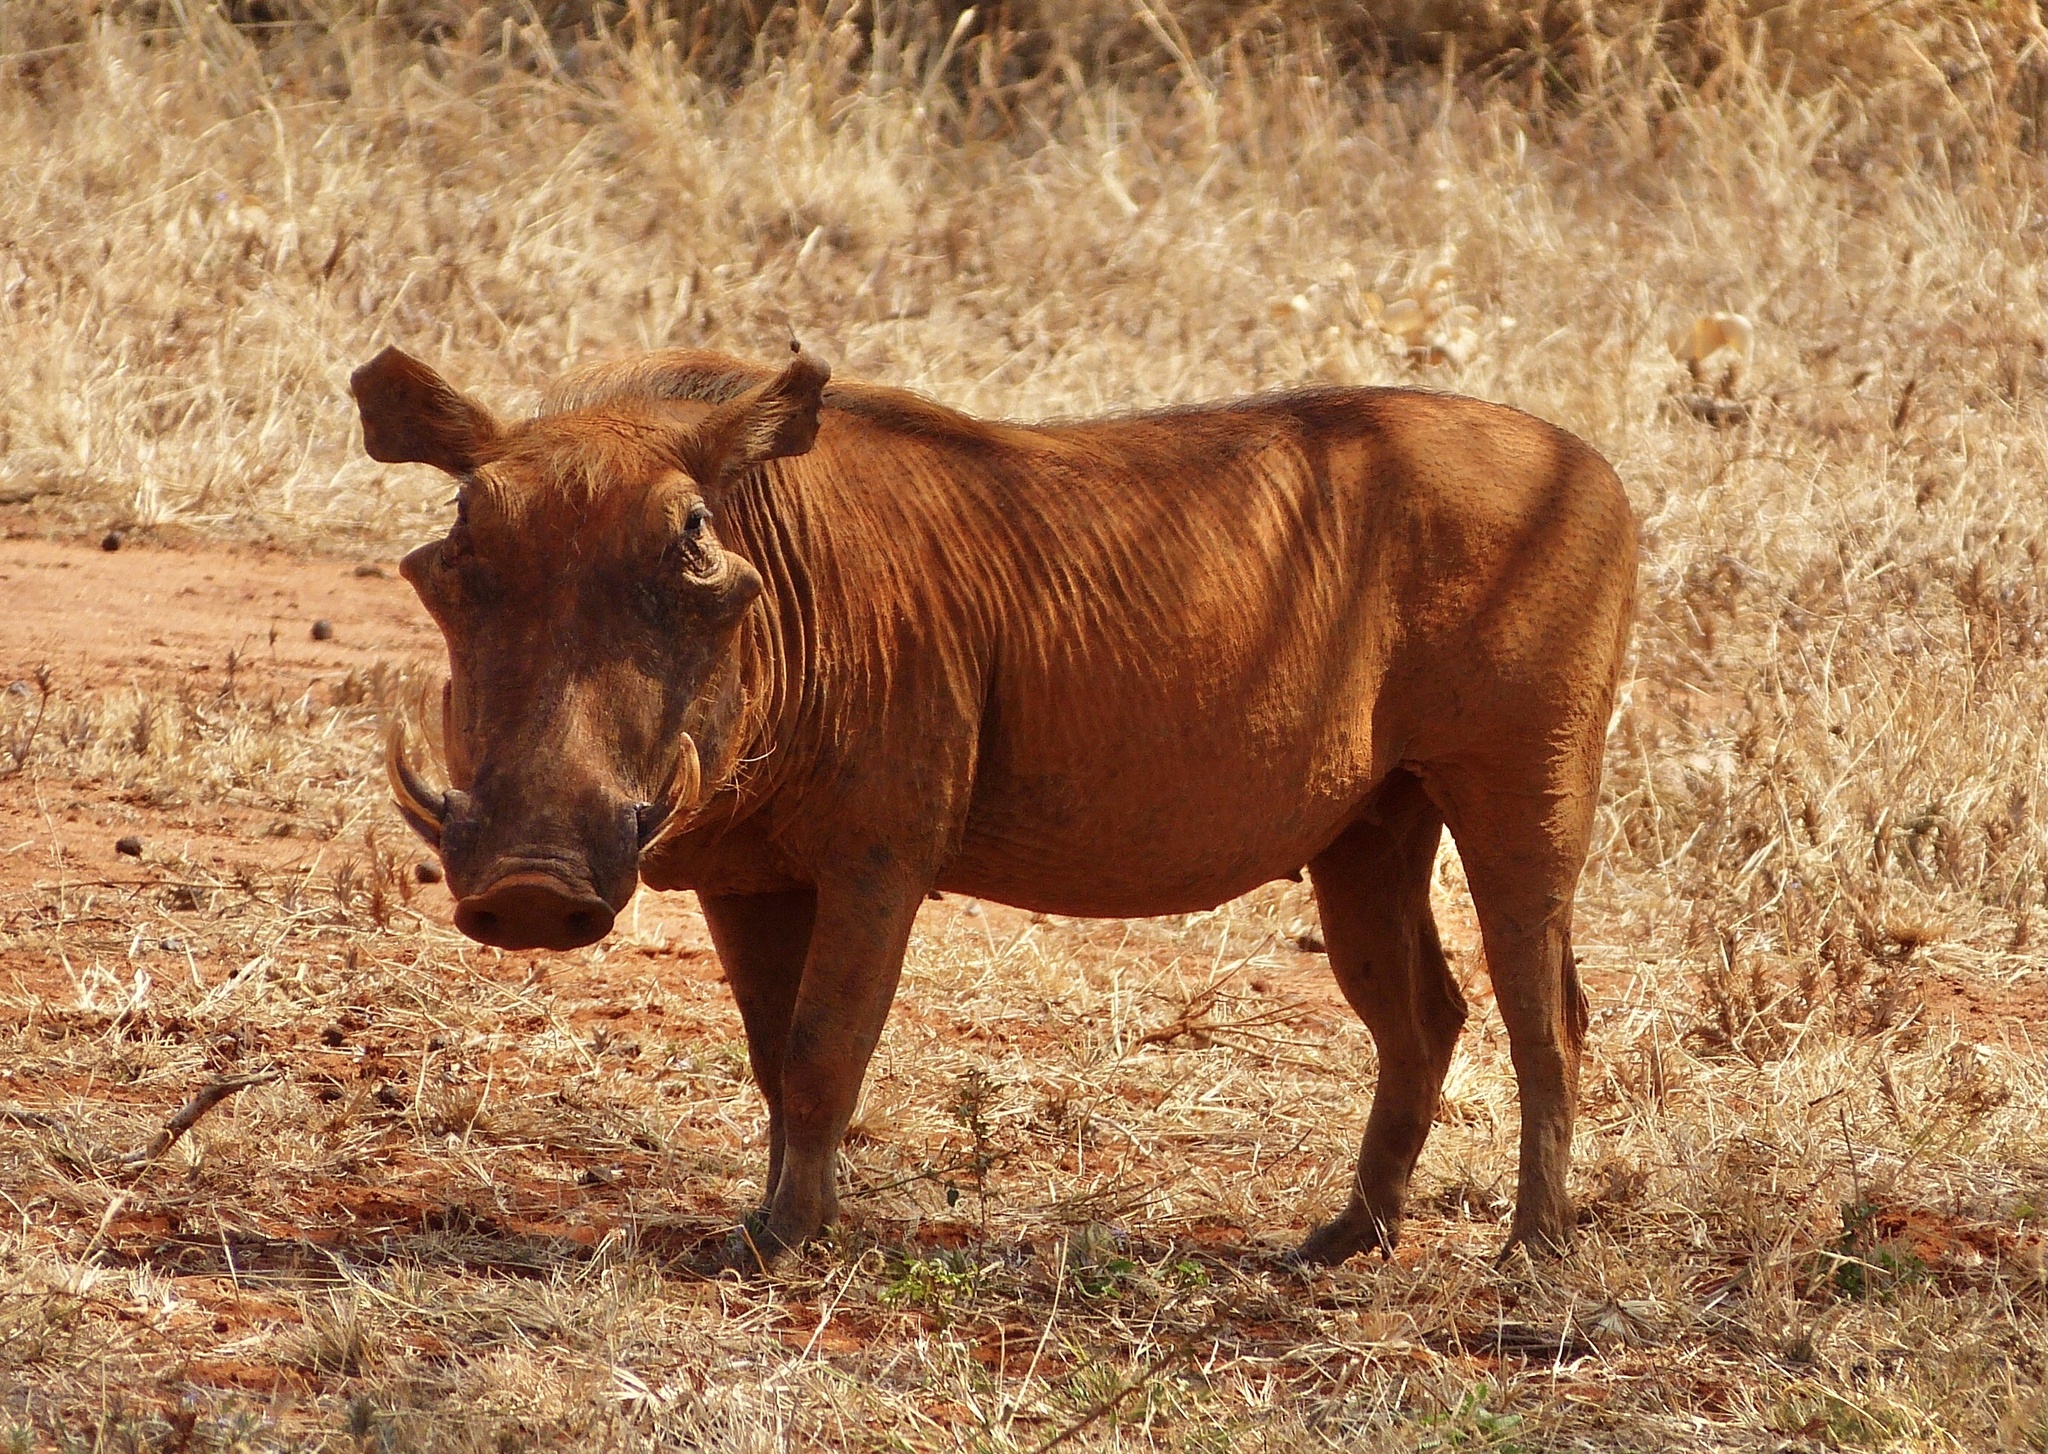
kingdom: Animalia
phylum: Chordata
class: Mammalia
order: Artiodactyla
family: Suidae
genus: Phacochoerus
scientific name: Phacochoerus aethiopicus
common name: Desert warthog
